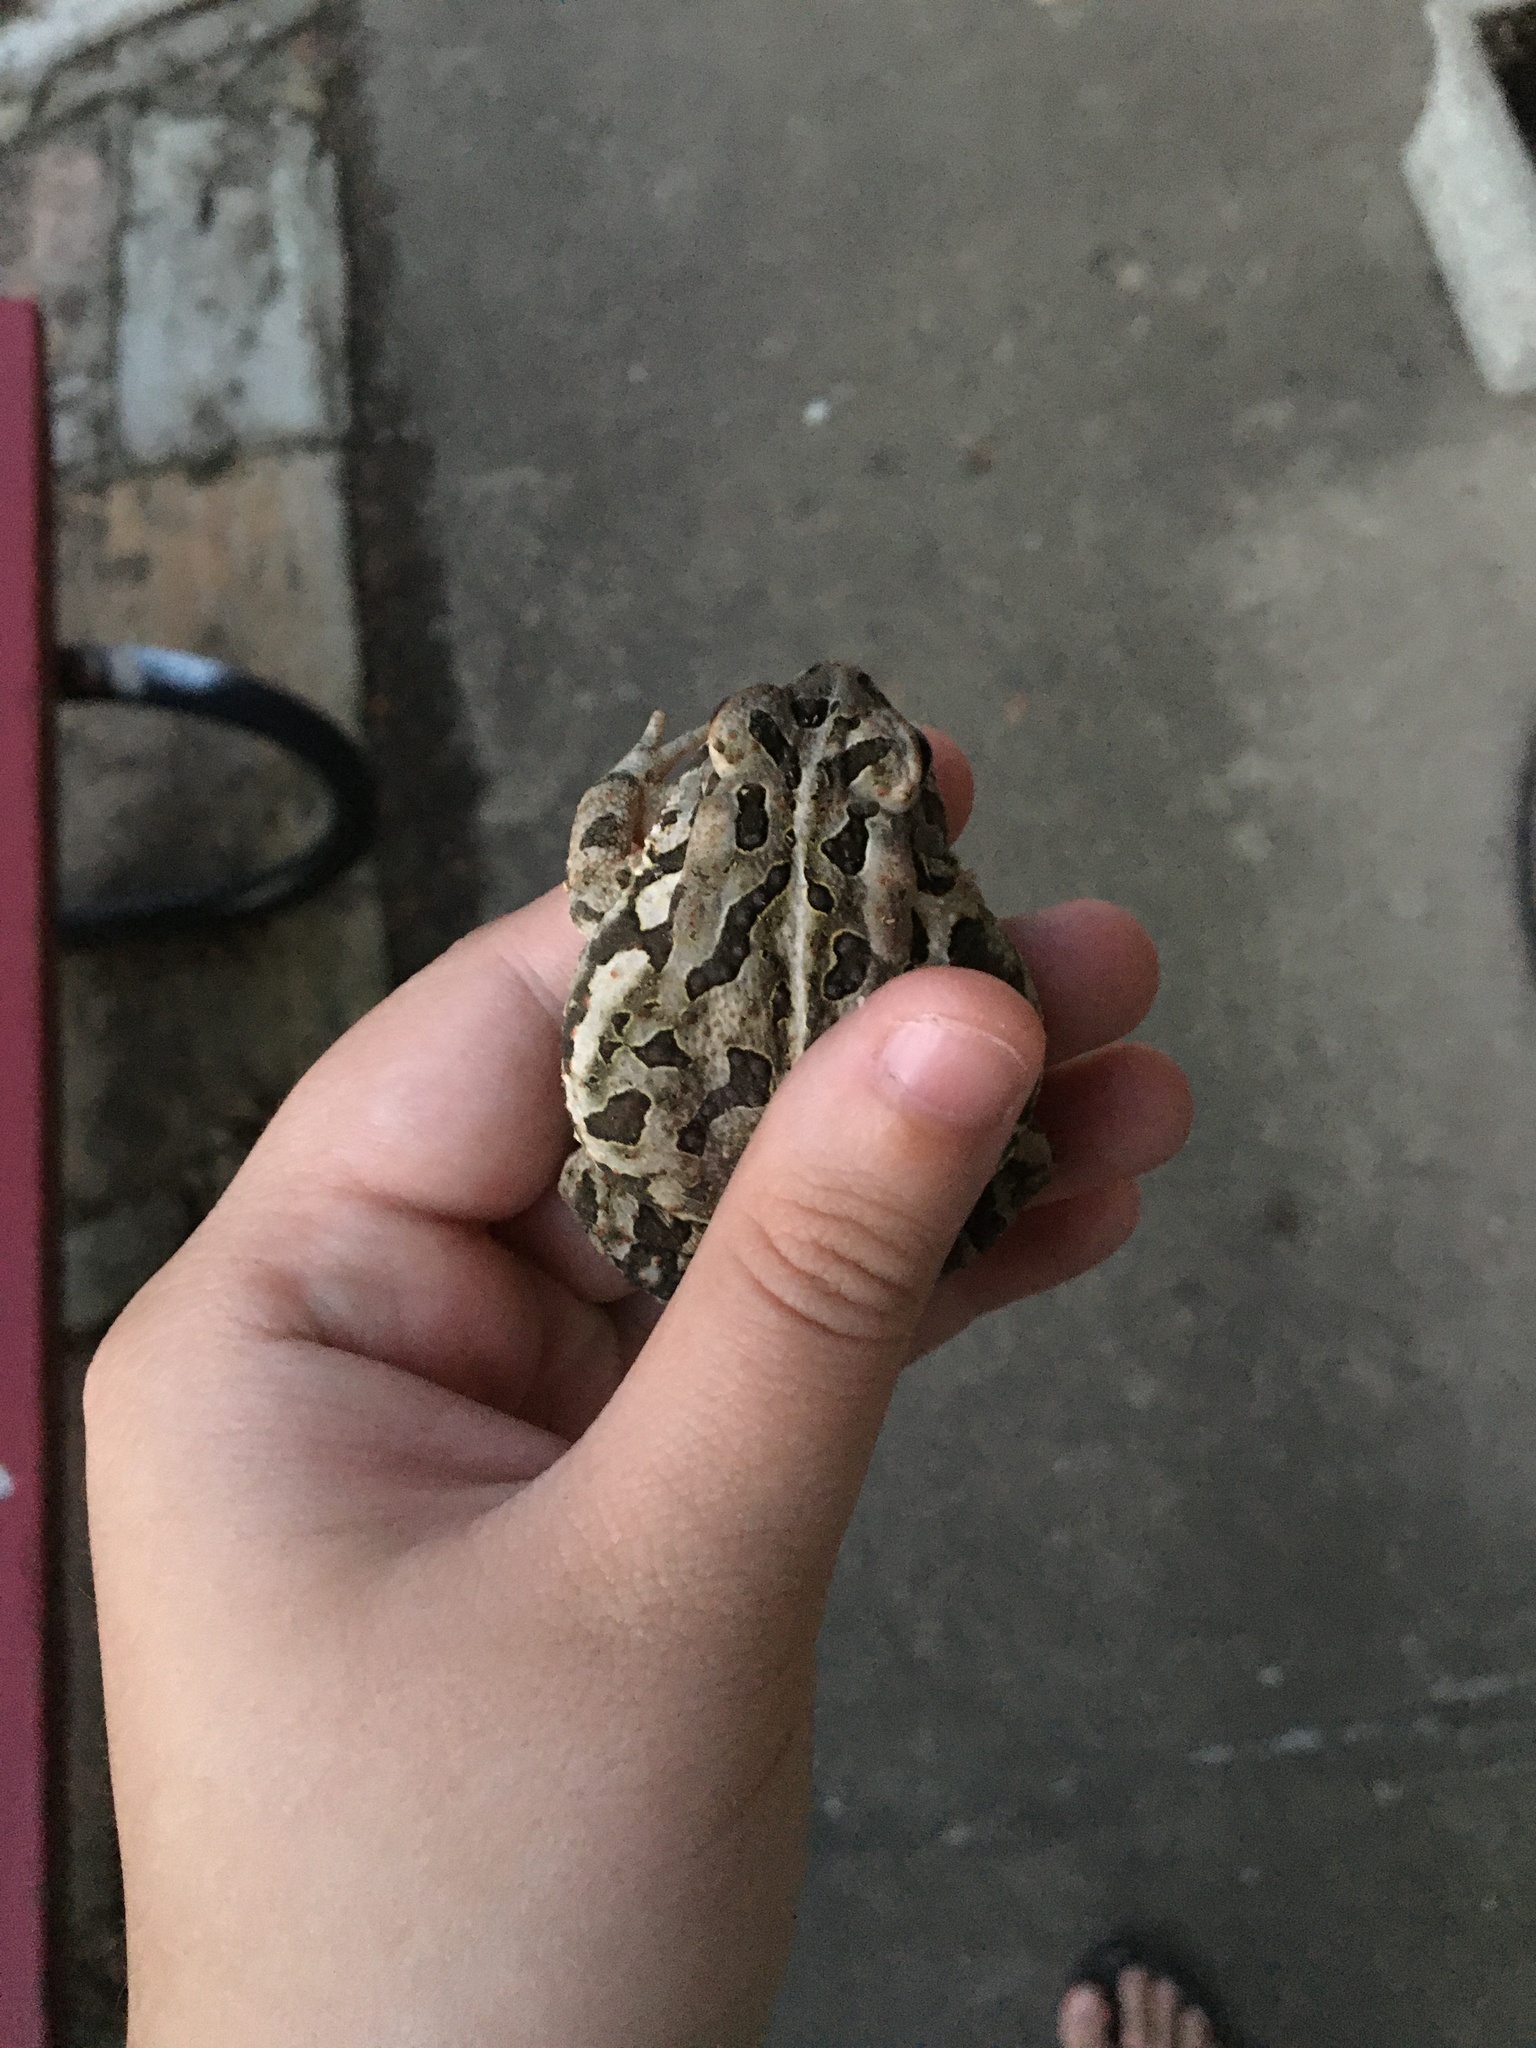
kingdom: Animalia
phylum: Chordata
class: Amphibia
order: Anura
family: Bufonidae
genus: Anaxyrus
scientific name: Anaxyrus fowleri
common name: Fowler's toad
